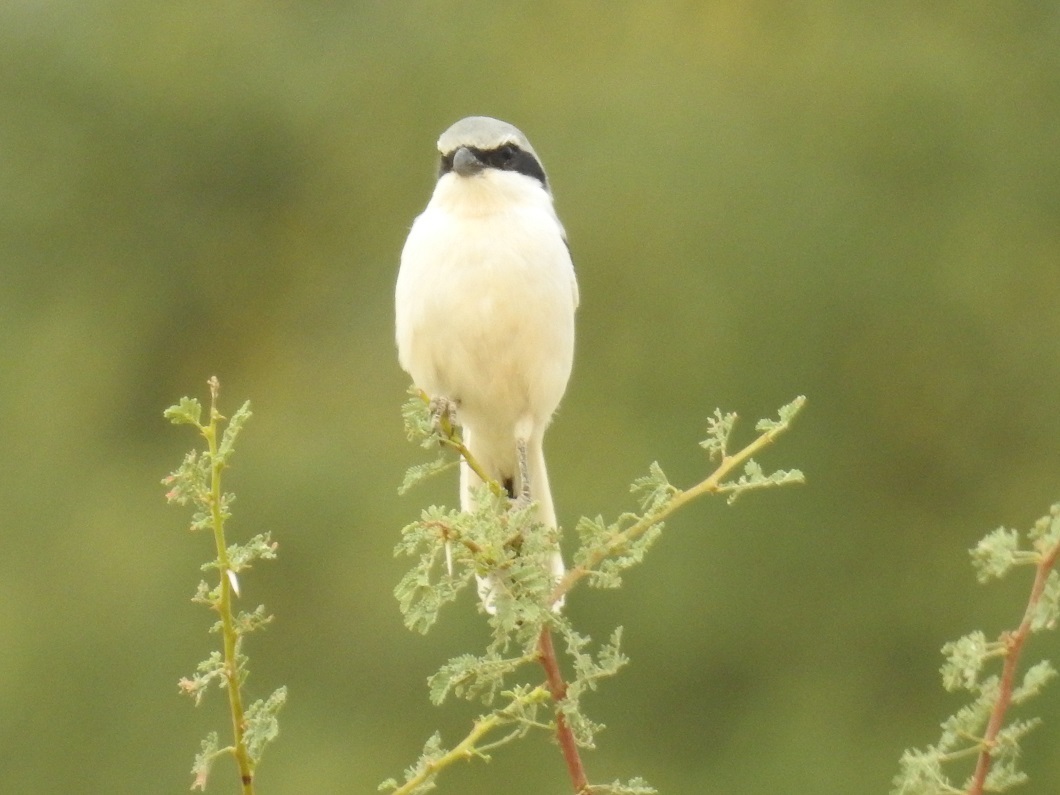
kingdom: Animalia
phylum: Chordata
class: Aves
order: Passeriformes
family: Laniidae
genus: Lanius
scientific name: Lanius excubitor
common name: Great grey shrike
